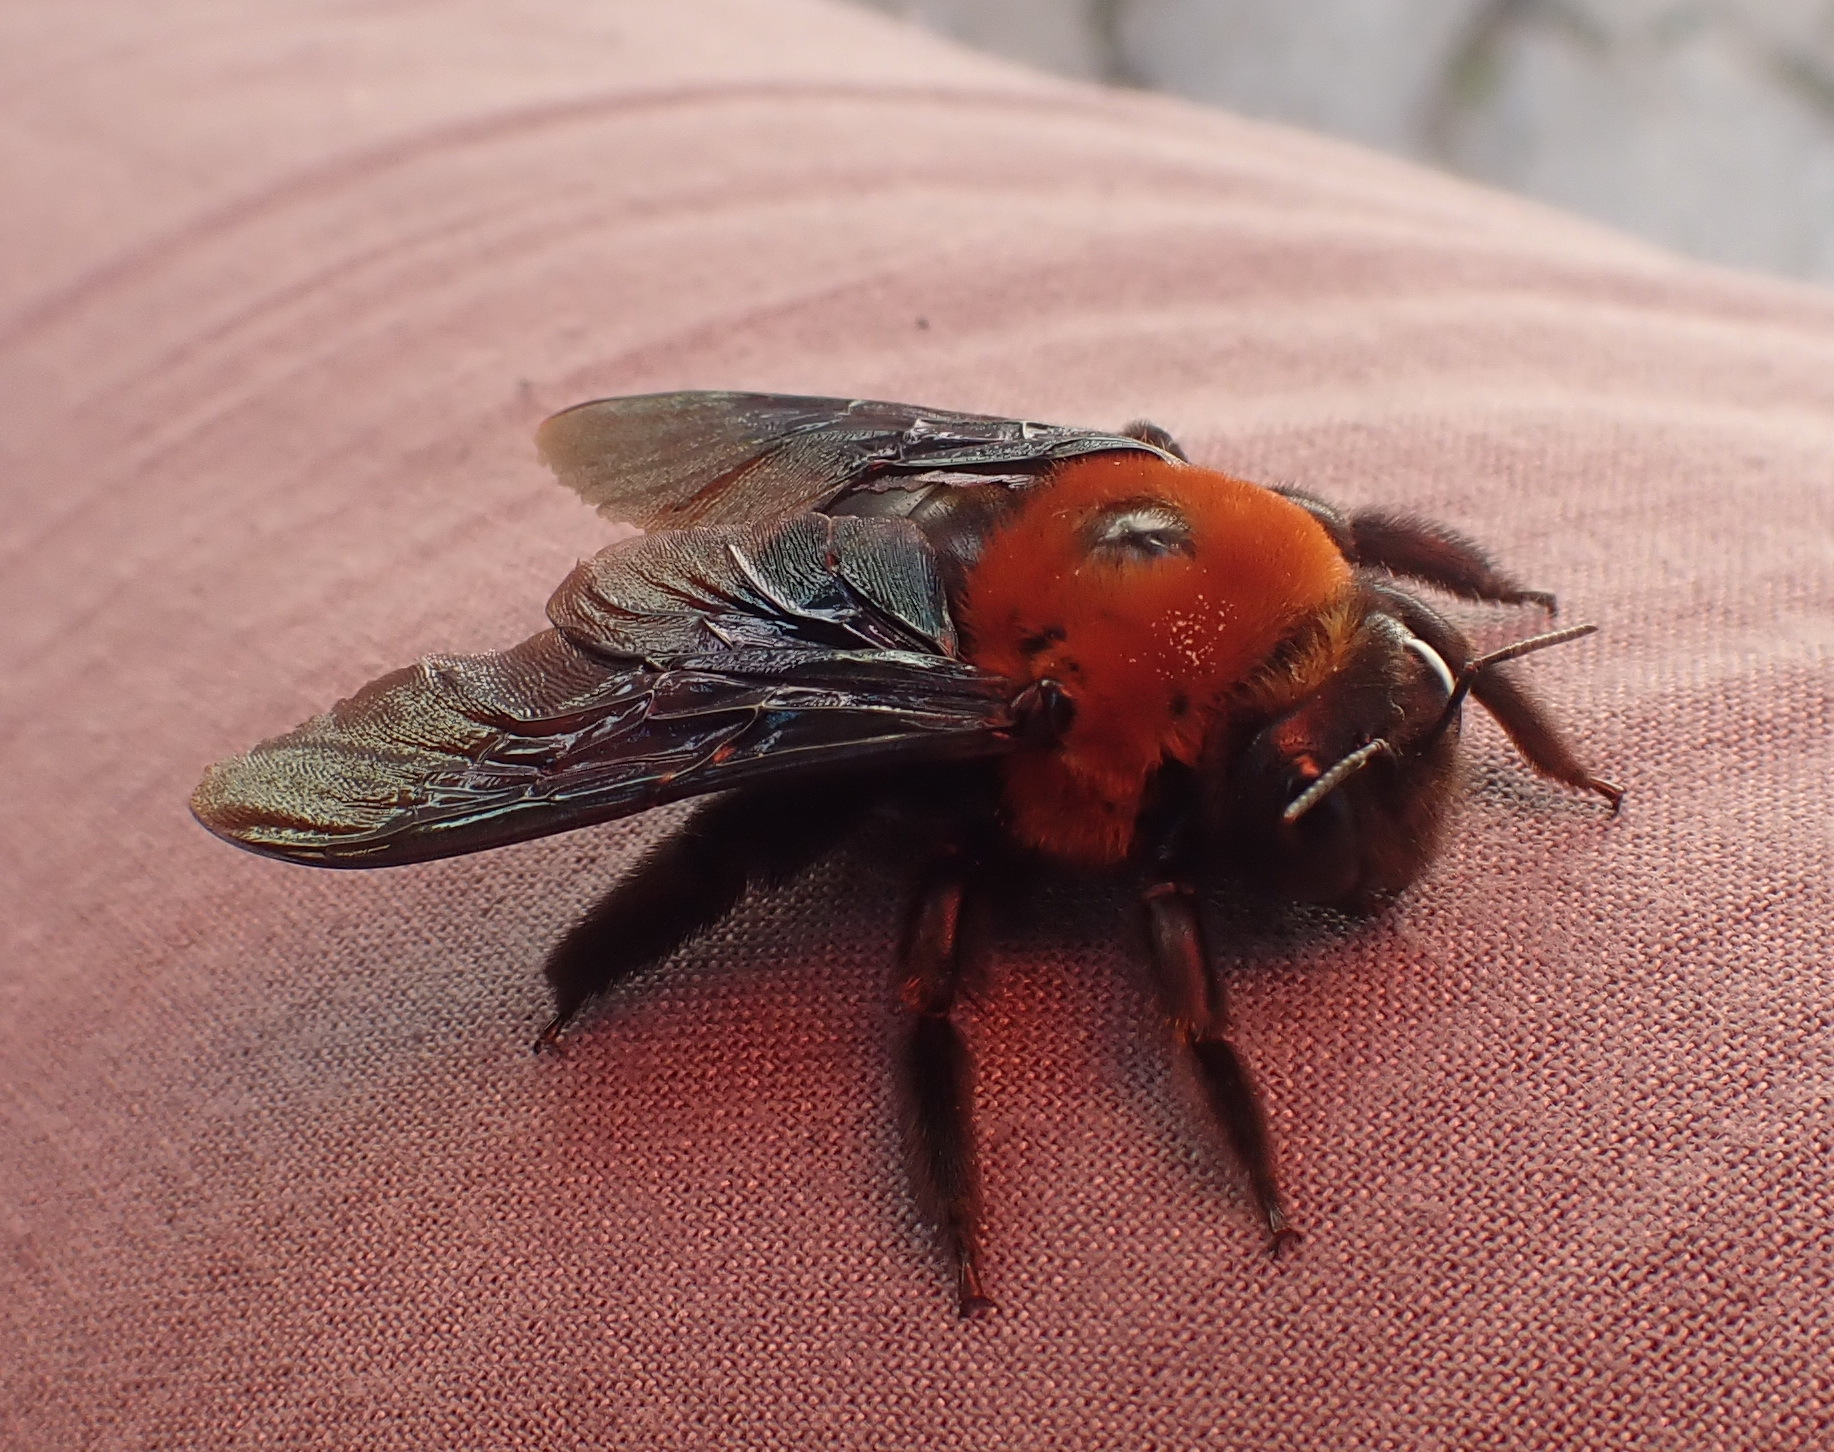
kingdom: Animalia
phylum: Arthropoda
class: Insecta
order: Hymenoptera
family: Apidae
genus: Xylocopa
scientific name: Xylocopa flavorufa
